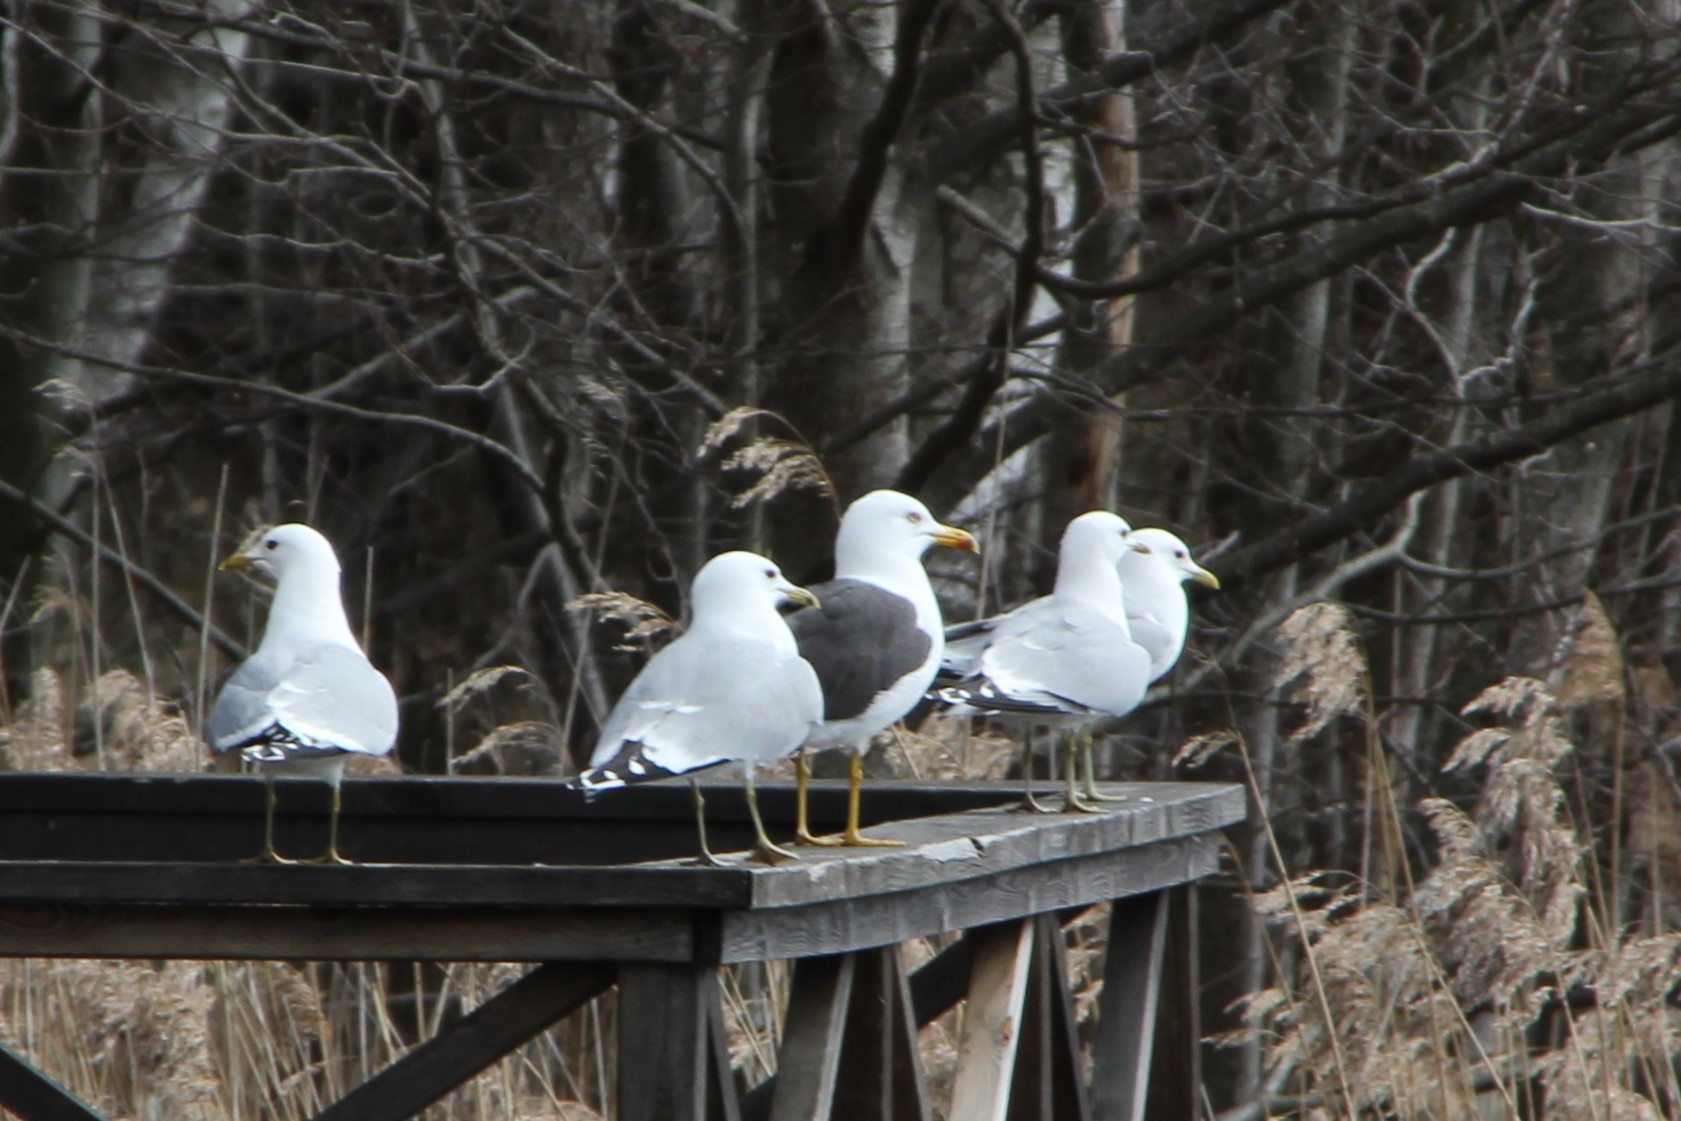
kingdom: Animalia
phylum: Chordata
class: Aves
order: Charadriiformes
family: Laridae
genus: Larus
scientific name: Larus canus
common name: Mew gull
